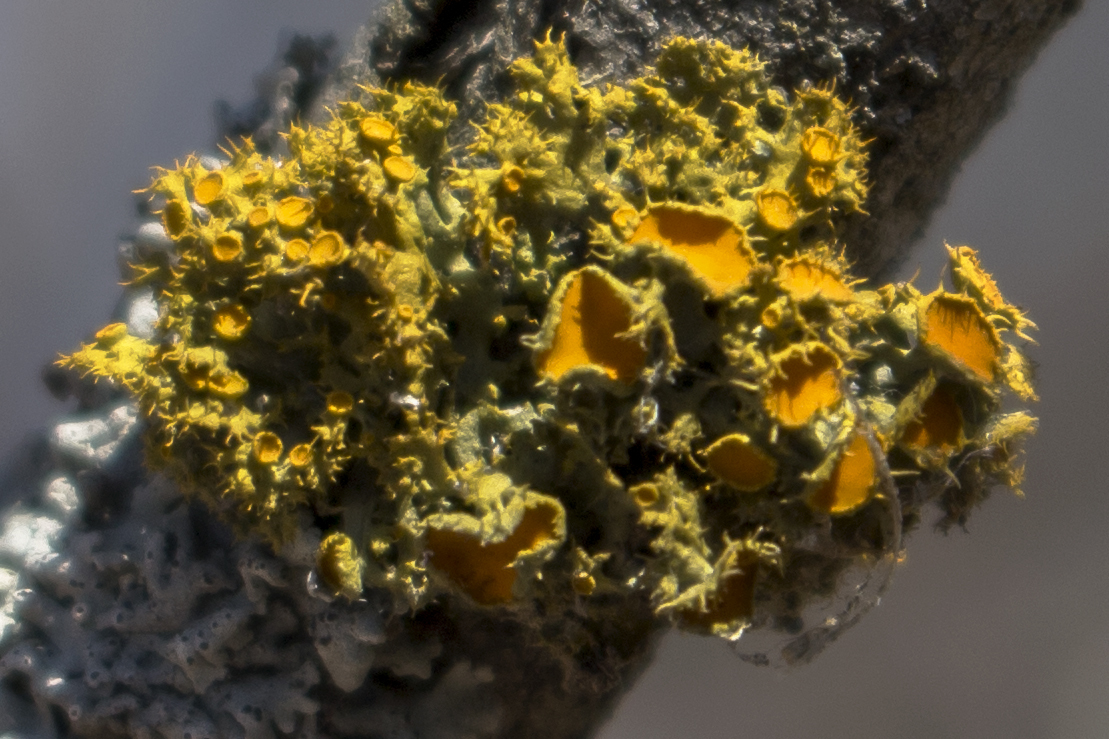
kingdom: Fungi
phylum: Ascomycota
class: Lecanoromycetes
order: Teloschistales
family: Teloschistaceae
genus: Niorma
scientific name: Niorma chrysophthalma
